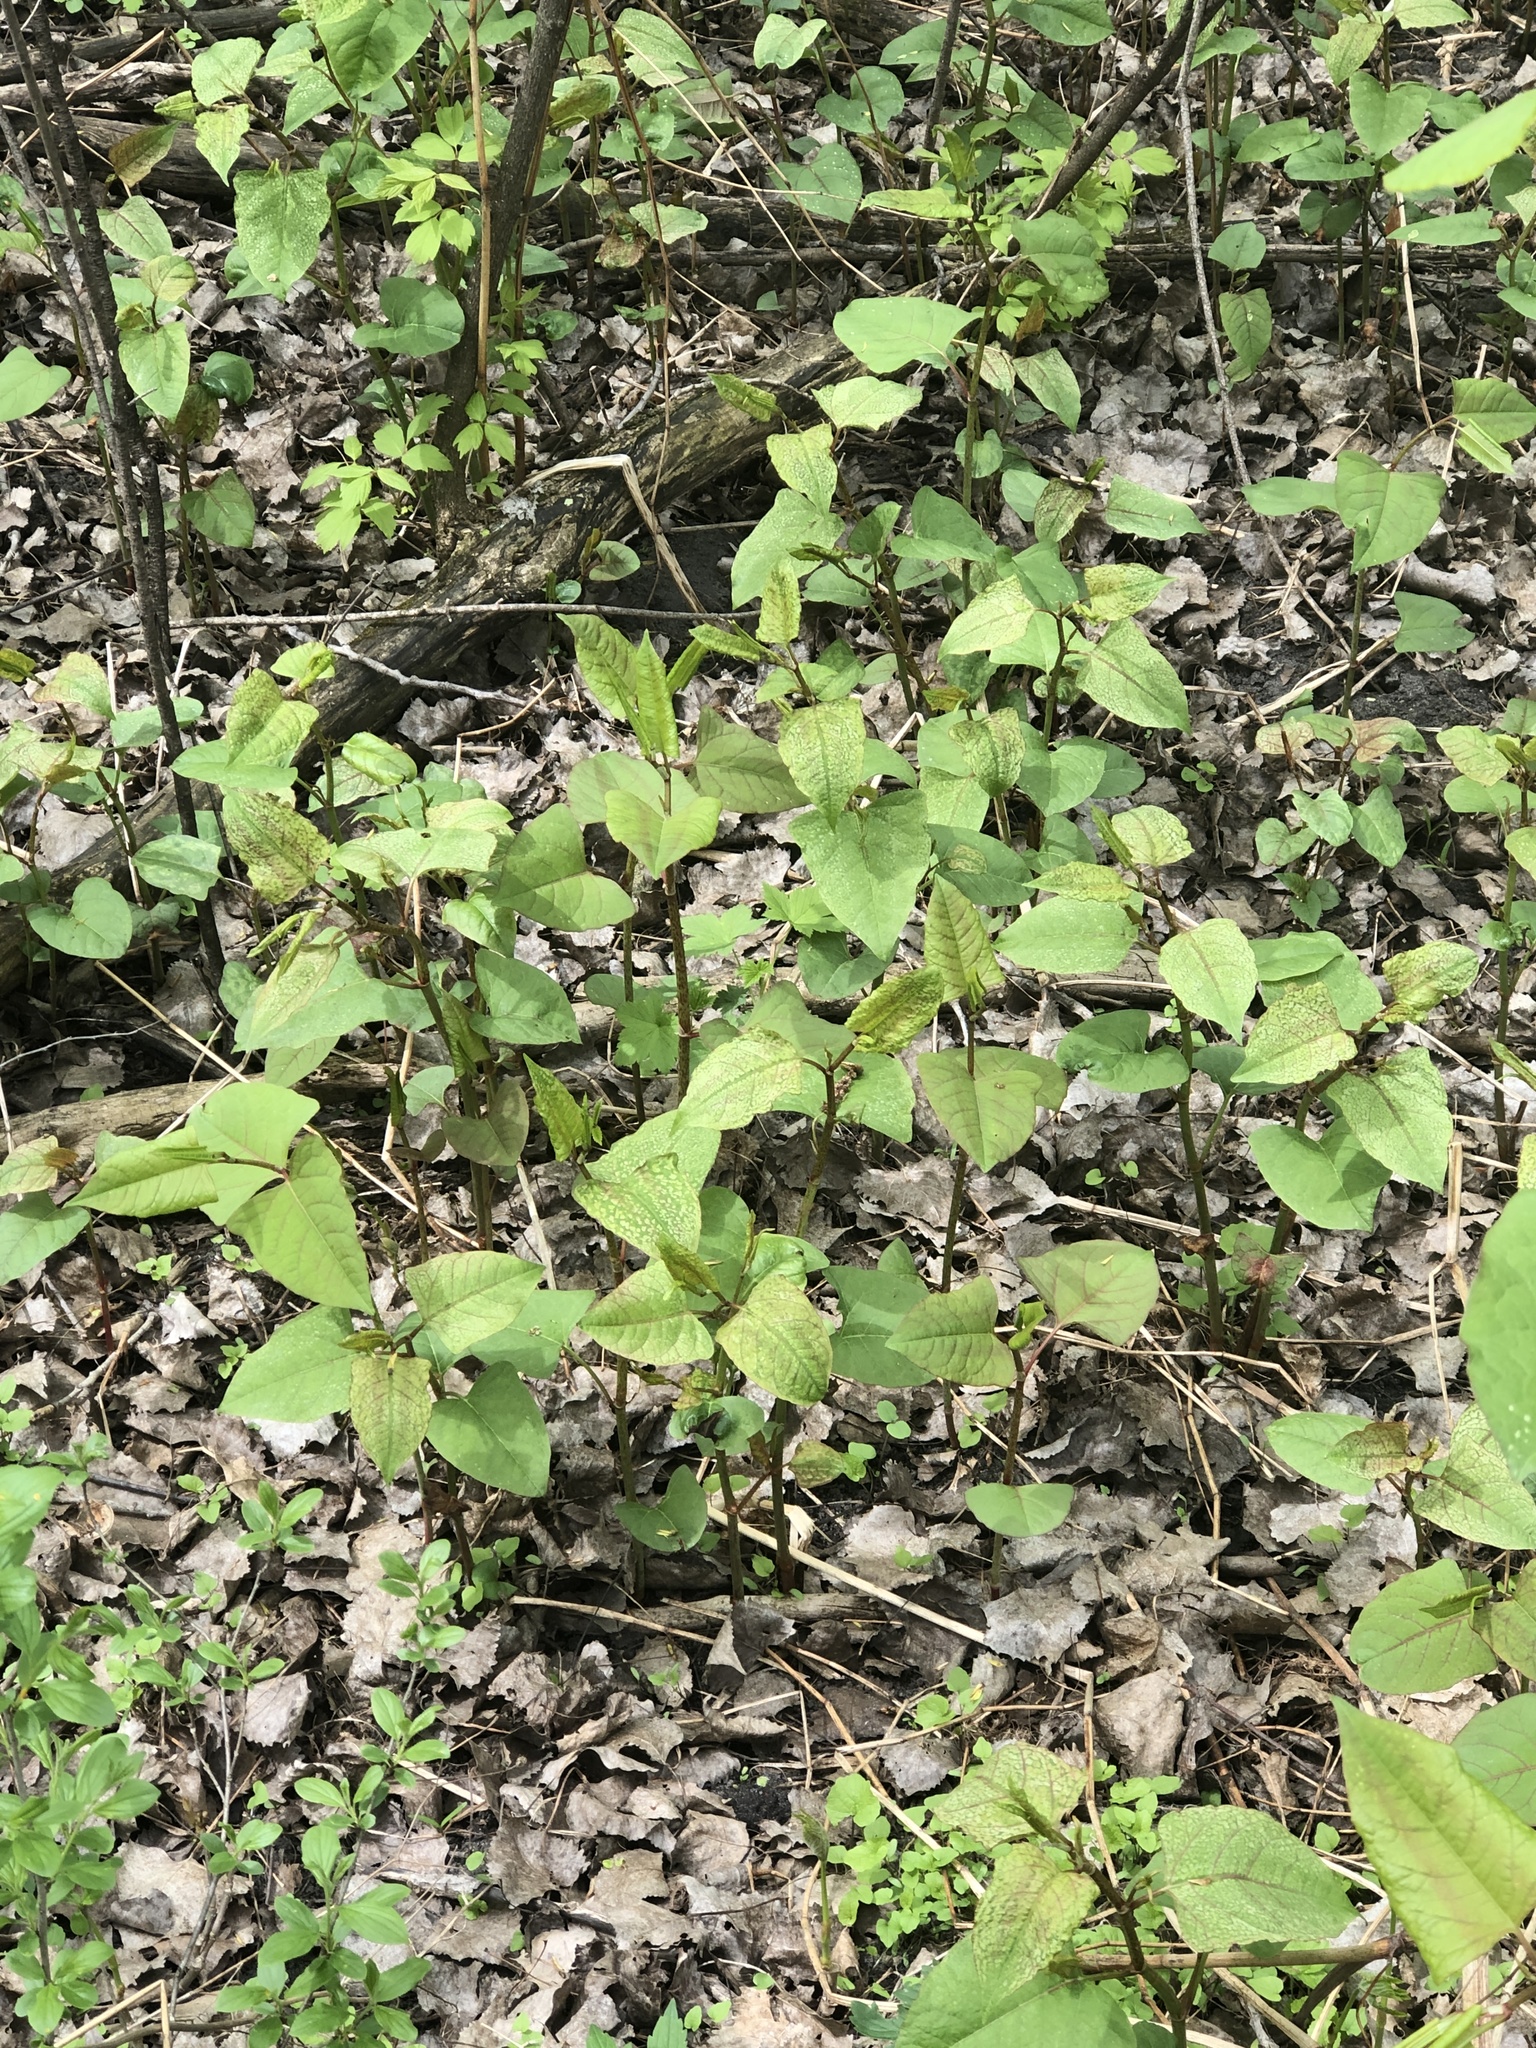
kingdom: Plantae
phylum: Tracheophyta
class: Magnoliopsida
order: Caryophyllales
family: Polygonaceae
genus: Reynoutria
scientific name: Reynoutria japonica
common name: Japanese knotweed
